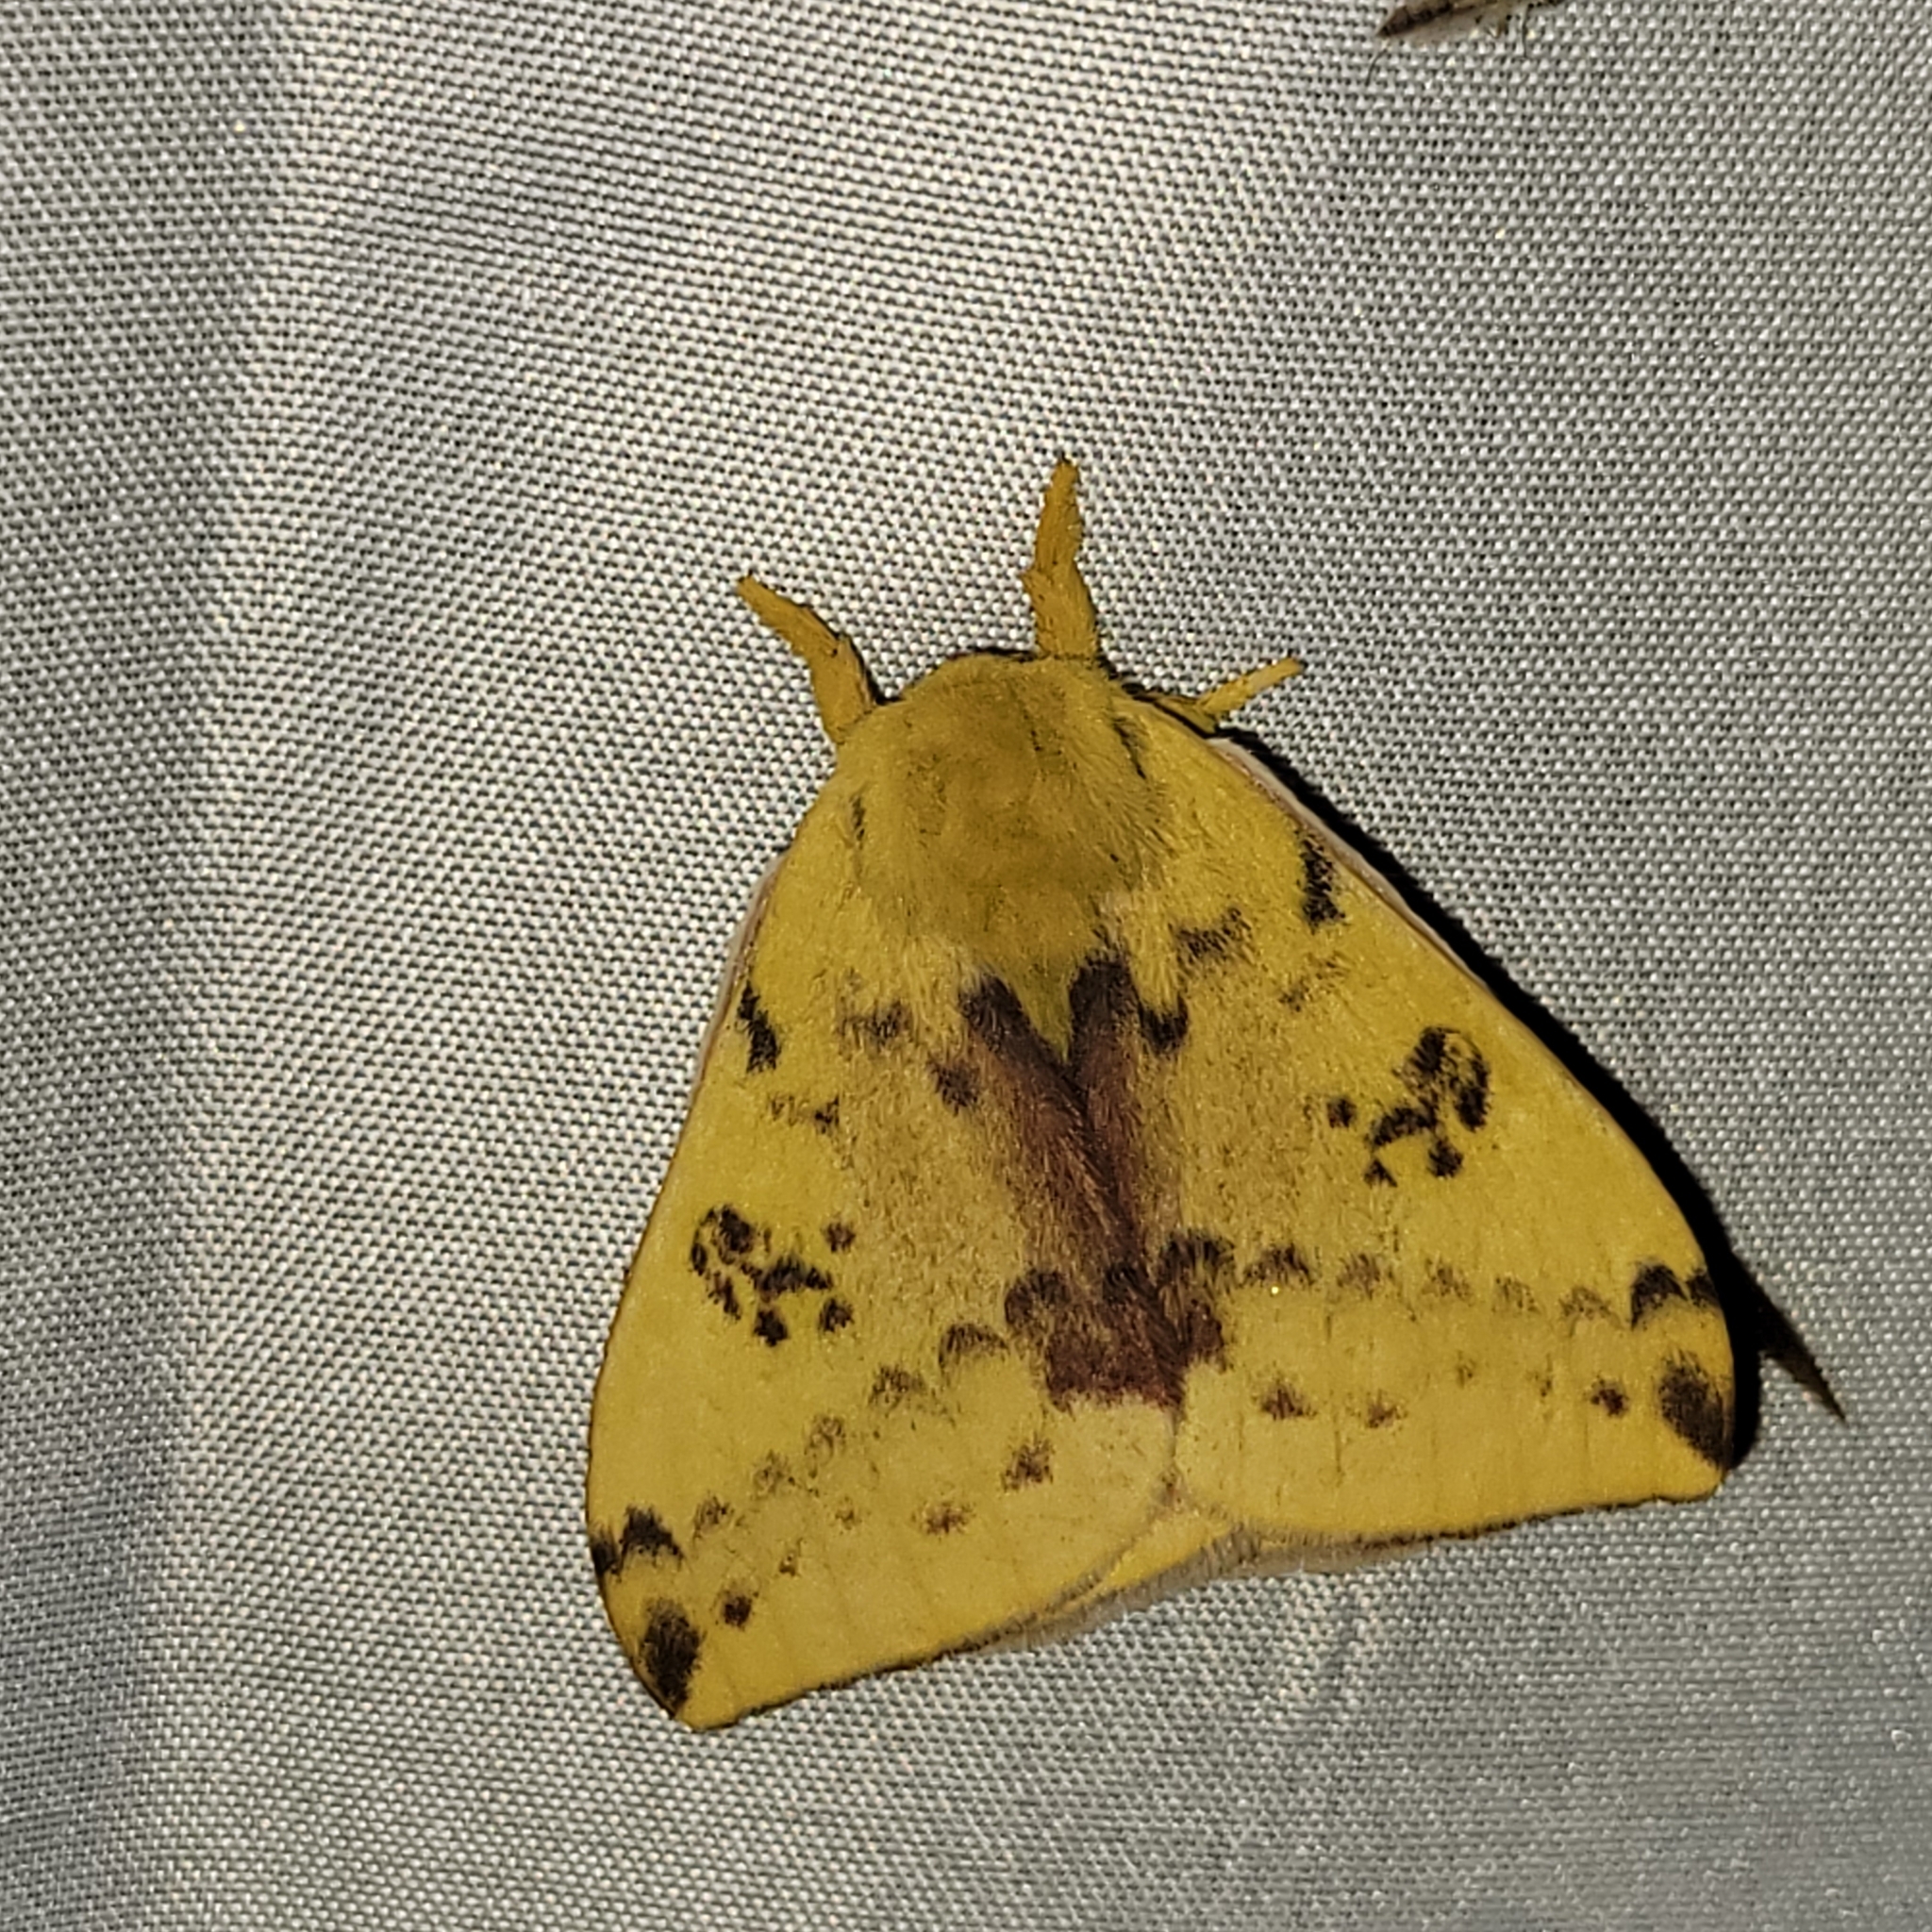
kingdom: Animalia
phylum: Arthropoda
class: Insecta
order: Lepidoptera
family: Saturniidae
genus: Automeris
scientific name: Automeris io
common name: Io moth
